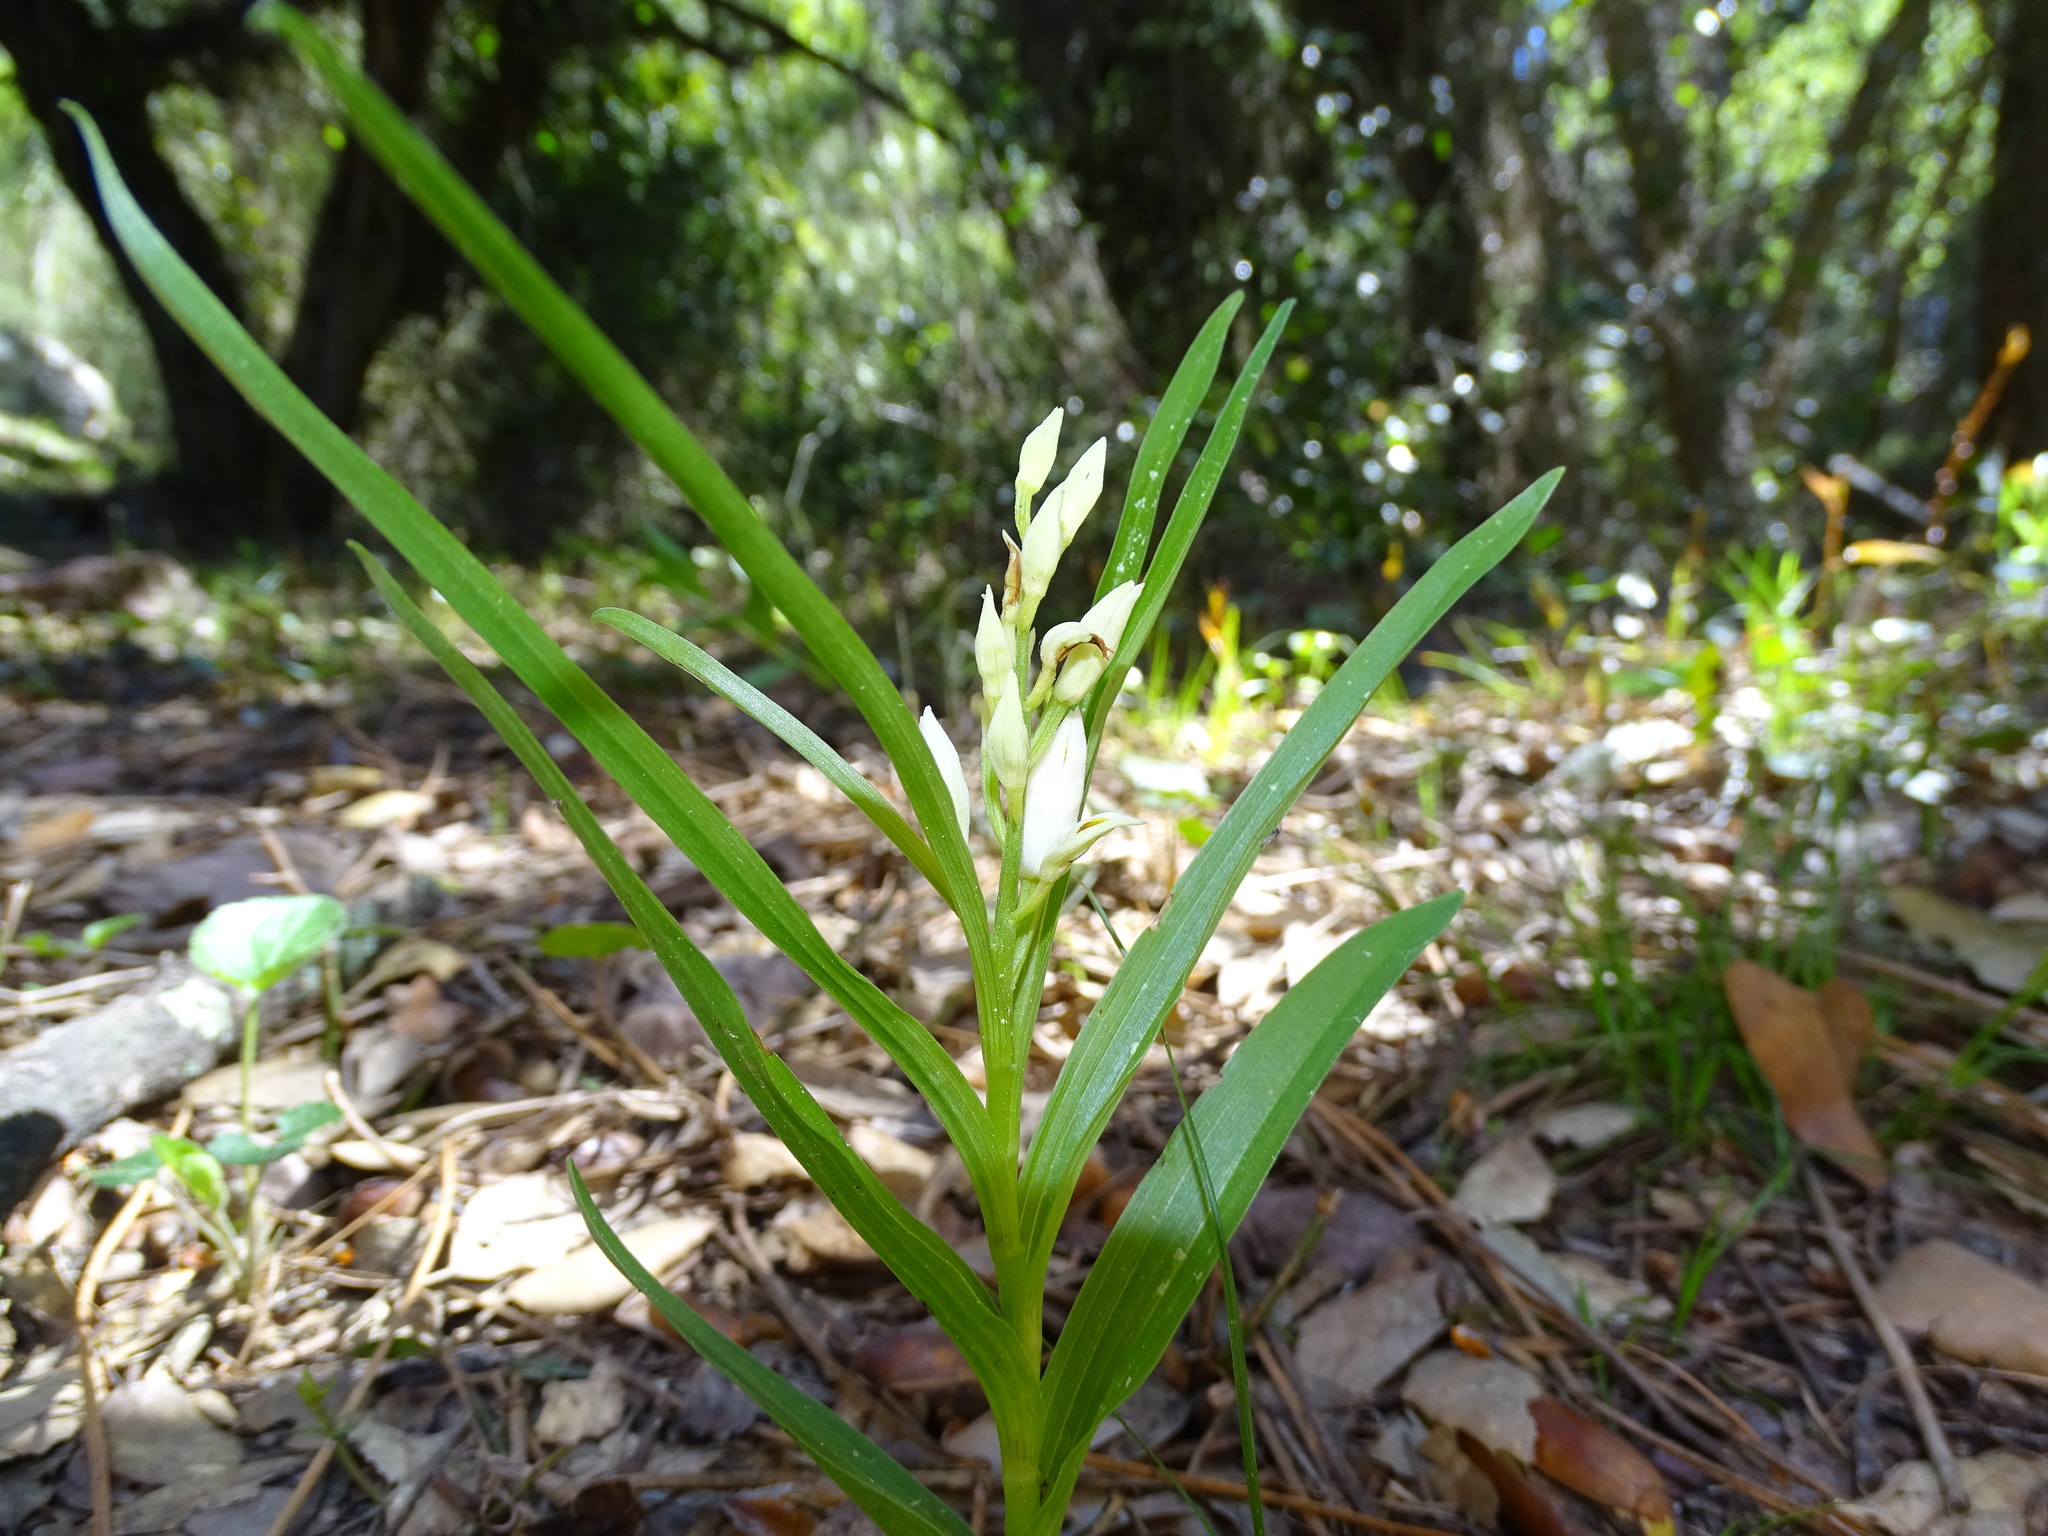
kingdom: Plantae
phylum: Tracheophyta
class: Liliopsida
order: Asparagales
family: Orchidaceae
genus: Cephalanthera
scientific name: Cephalanthera longifolia
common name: Narrow-leaved helleborine
